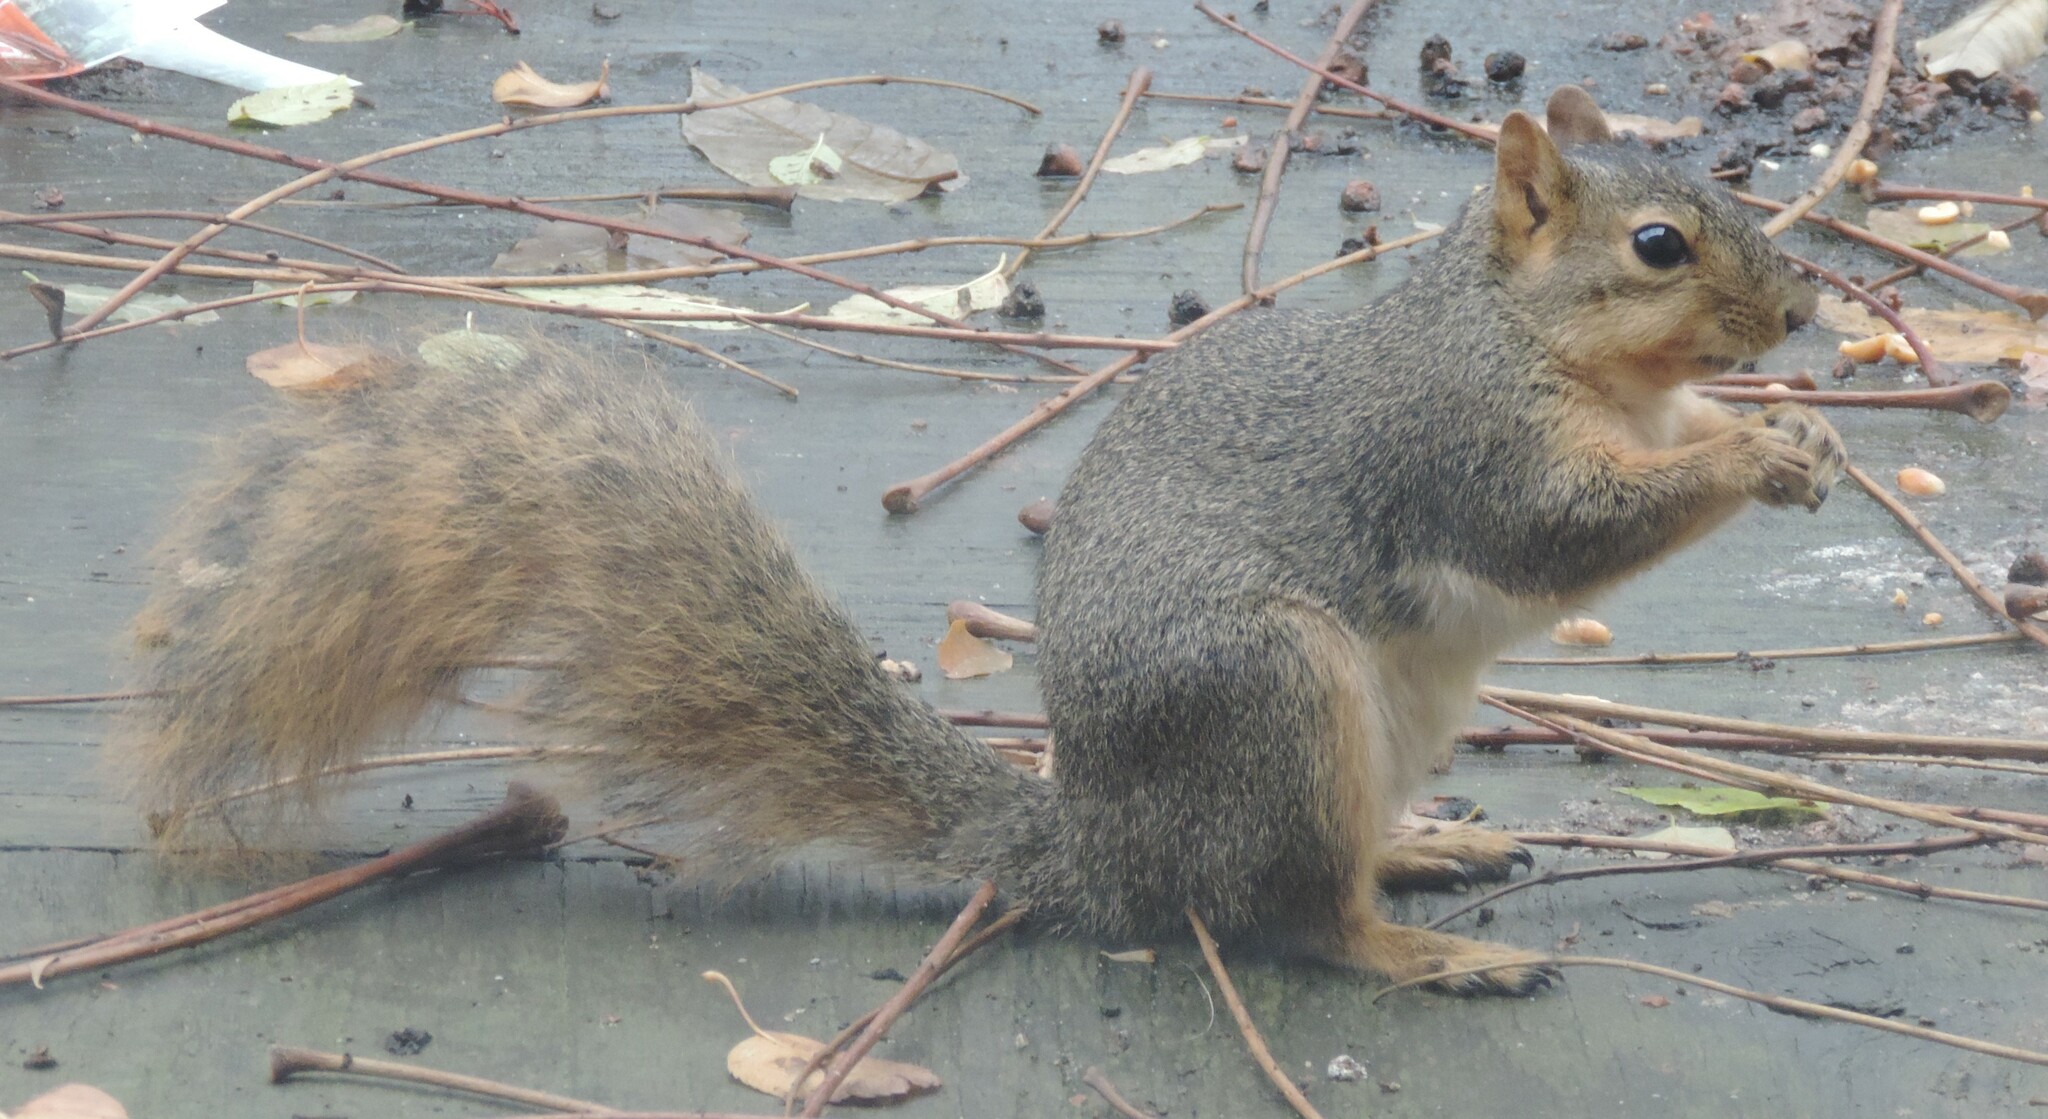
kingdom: Animalia
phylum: Chordata
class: Mammalia
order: Rodentia
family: Sciuridae
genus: Sciurus
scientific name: Sciurus niger
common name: Fox squirrel
